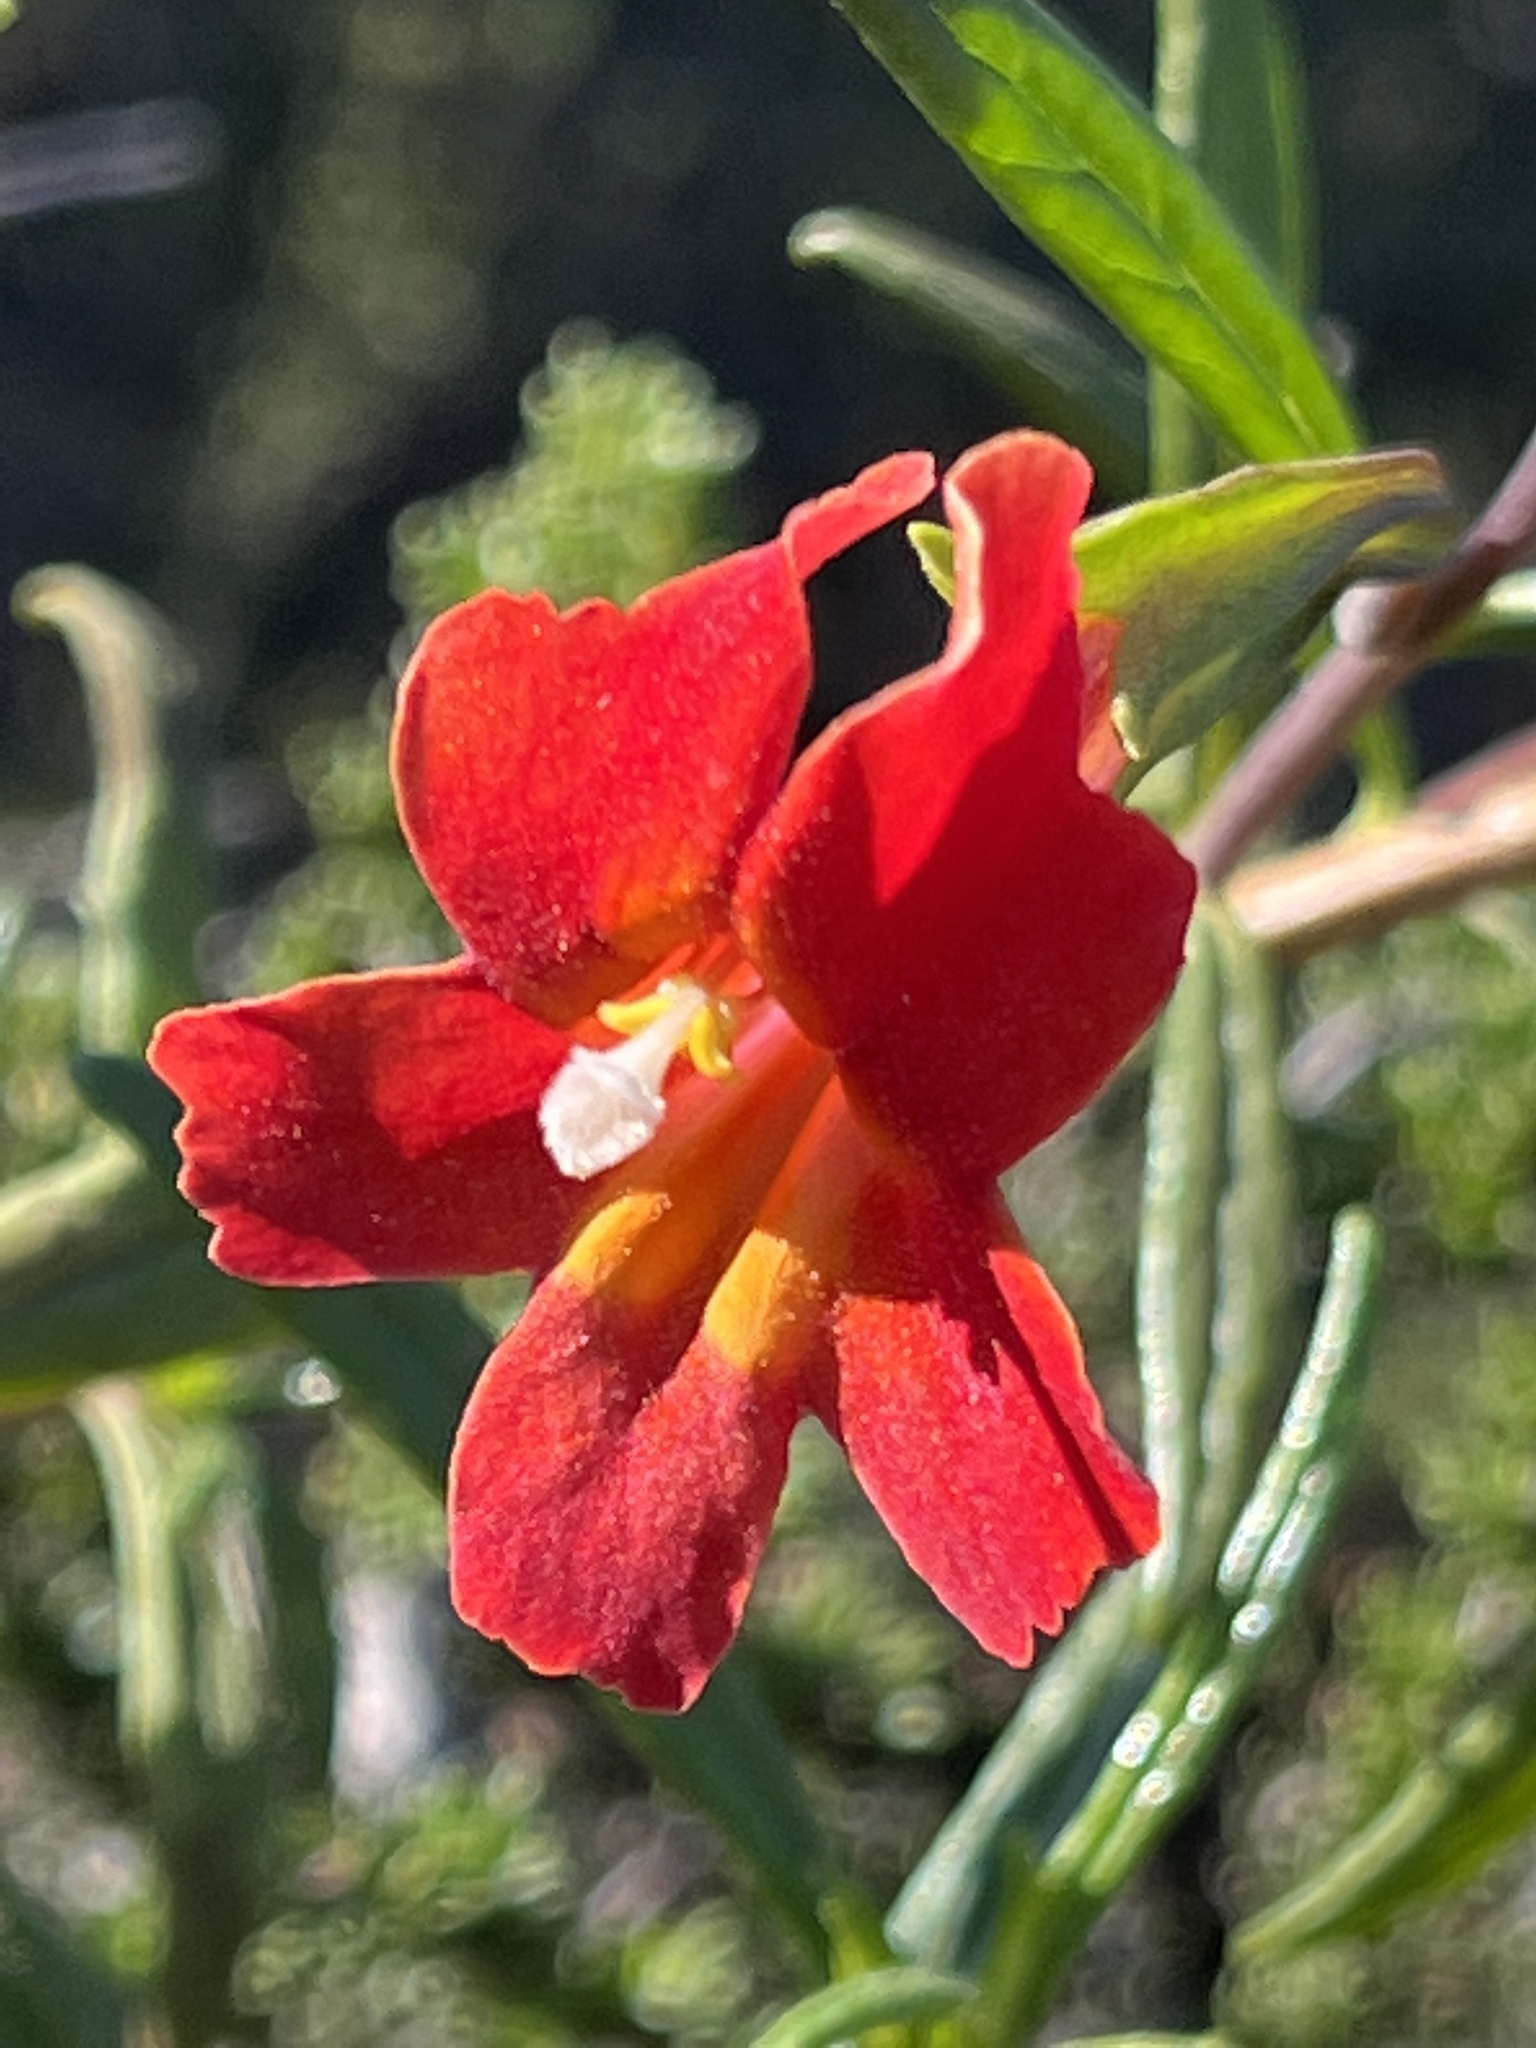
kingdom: Plantae
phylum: Tracheophyta
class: Magnoliopsida
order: Lamiales
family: Phrymaceae
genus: Diplacus
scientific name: Diplacus puniceus
